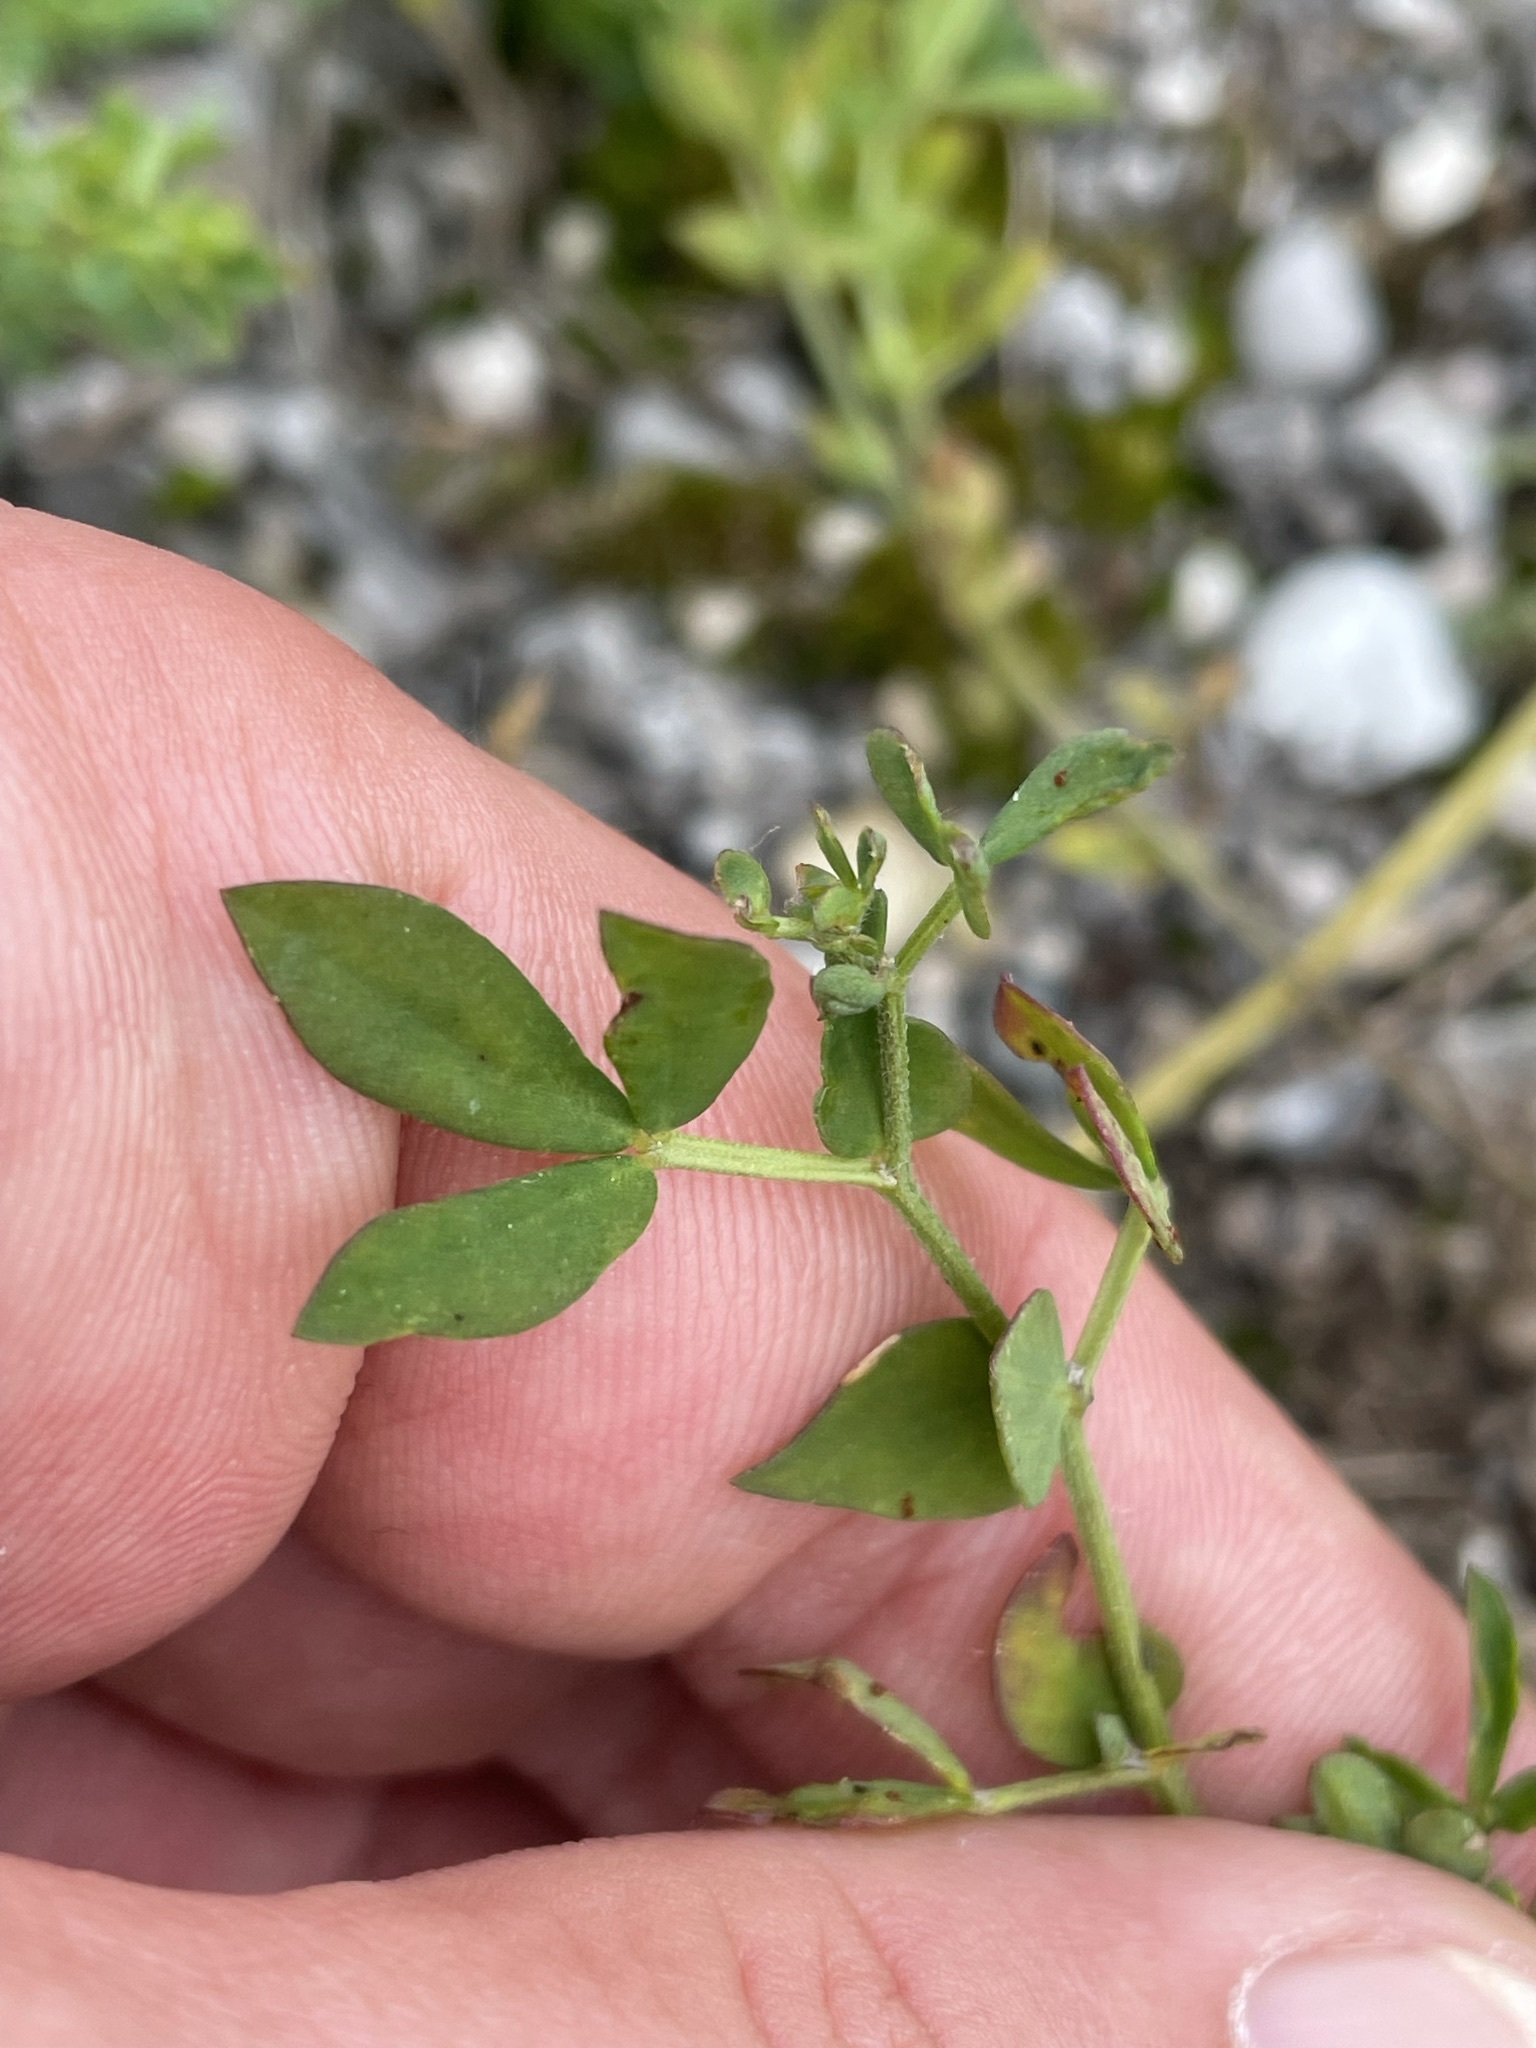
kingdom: Plantae
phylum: Tracheophyta
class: Magnoliopsida
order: Fabales
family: Fabaceae
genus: Melilotus
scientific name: Melilotus albus
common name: White melilot
